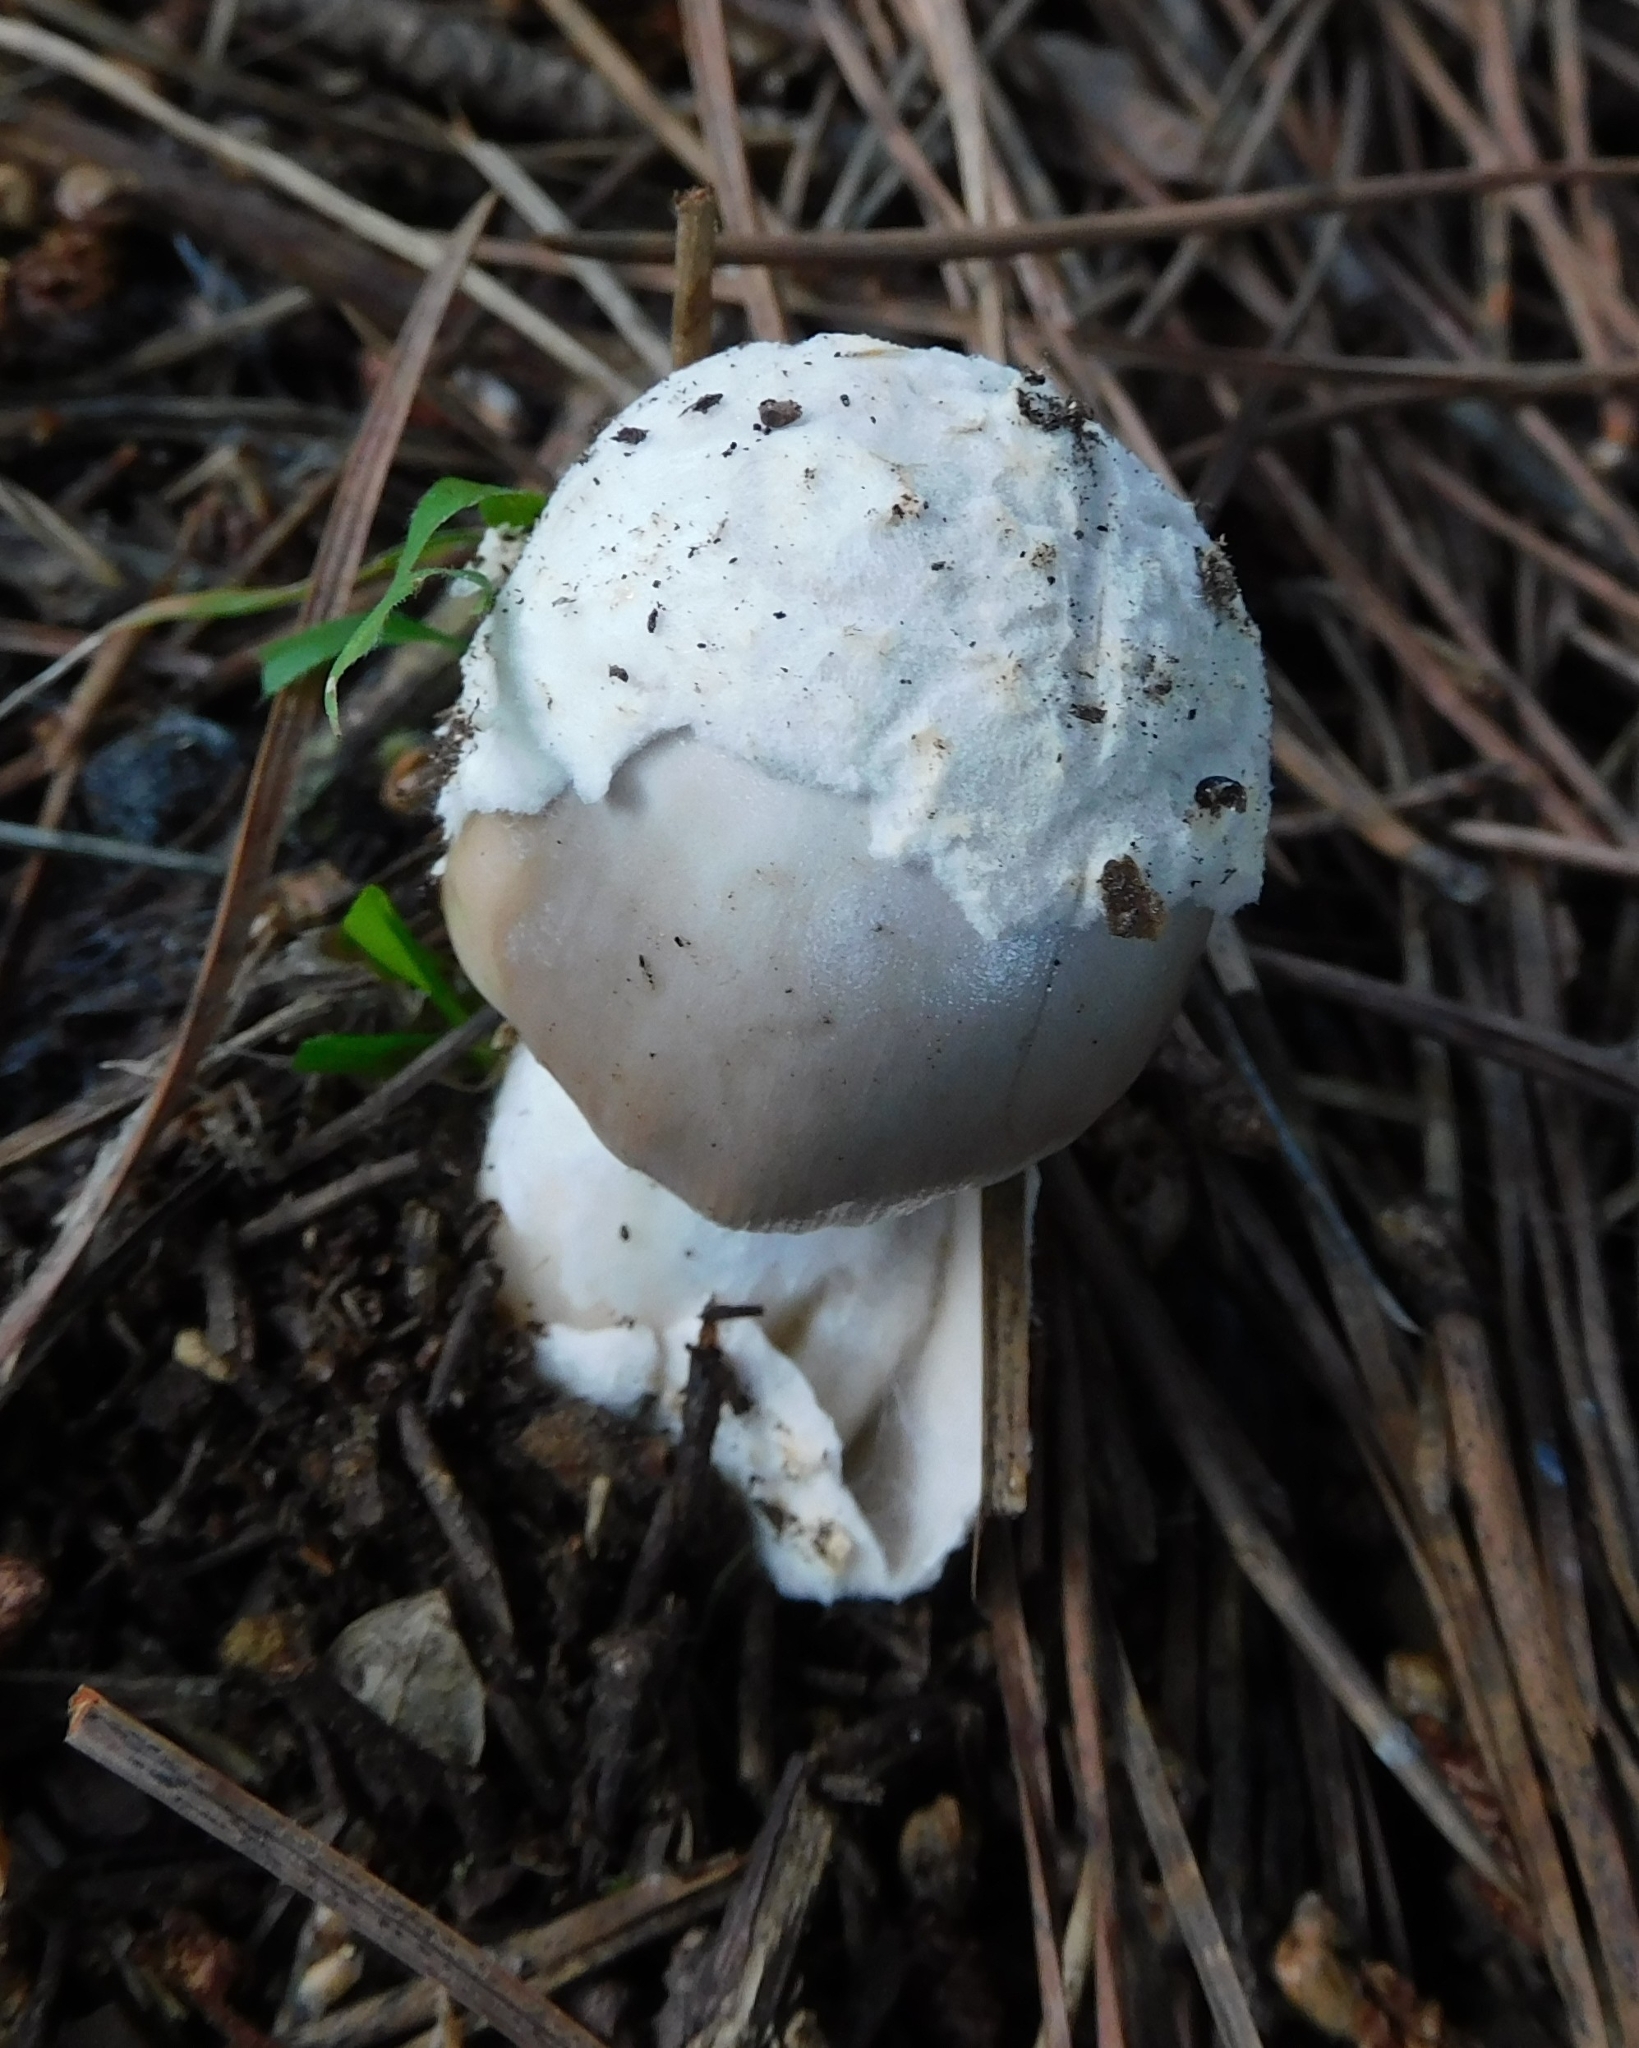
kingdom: Fungi
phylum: Basidiomycota
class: Agaricomycetes
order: Agaricales
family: Amanitaceae
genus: Amanita
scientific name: Amanita mairei
